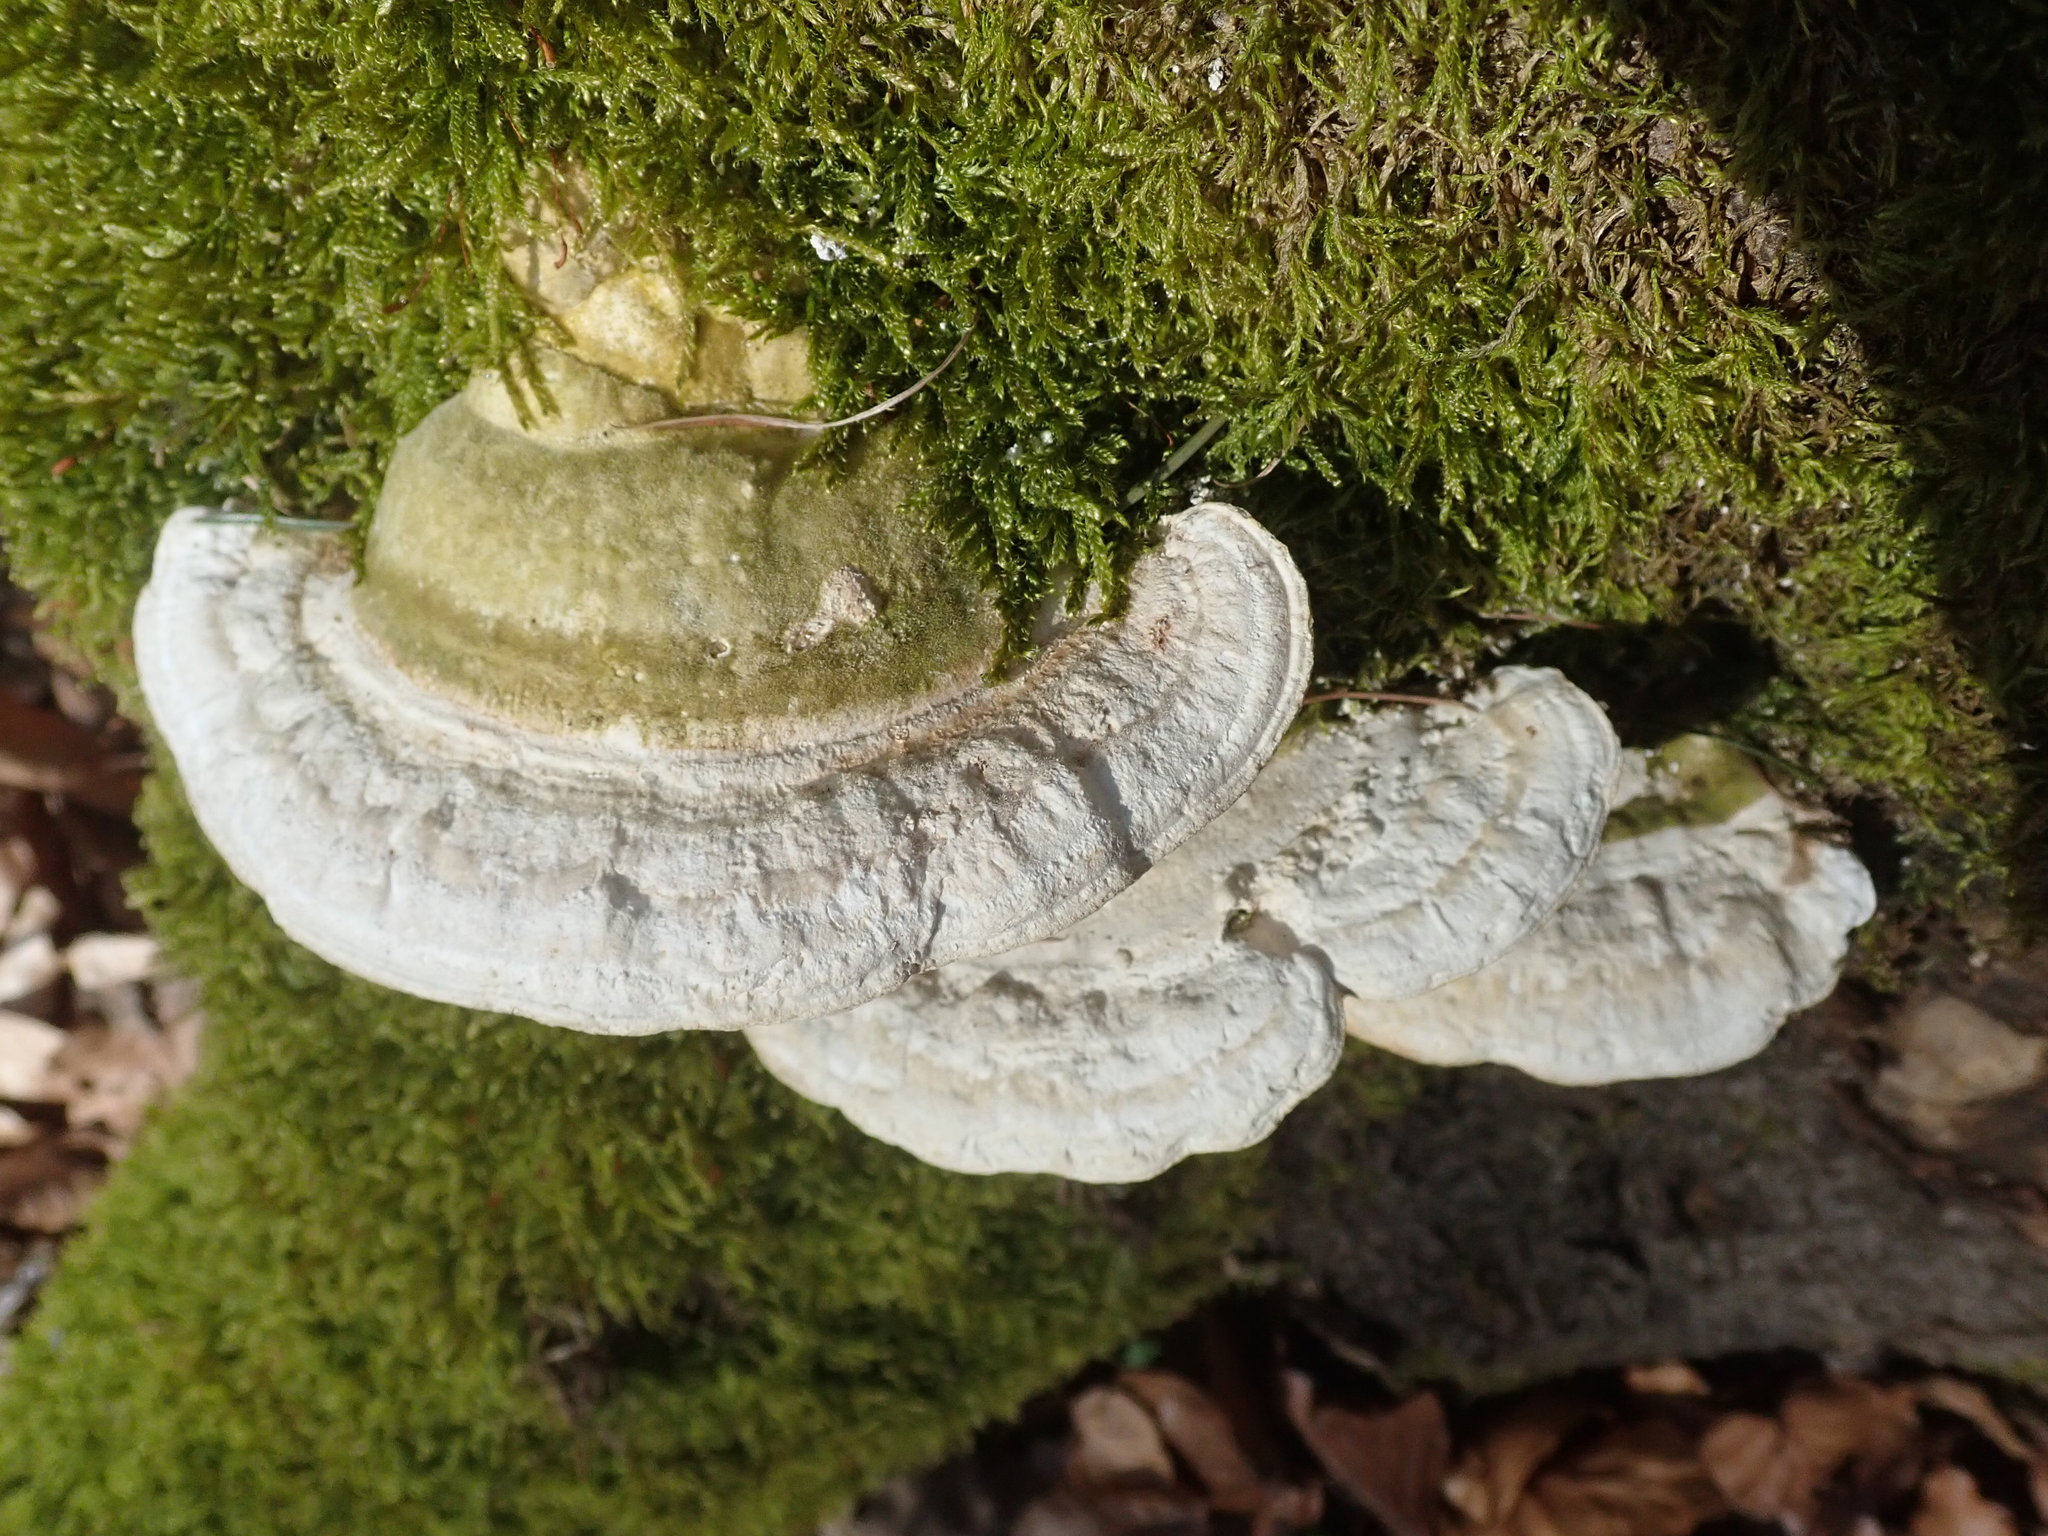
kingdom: Fungi
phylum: Basidiomycota
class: Agaricomycetes
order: Polyporales
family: Polyporaceae
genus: Trametes
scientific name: Trametes hirsuta
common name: Hairy bracket
